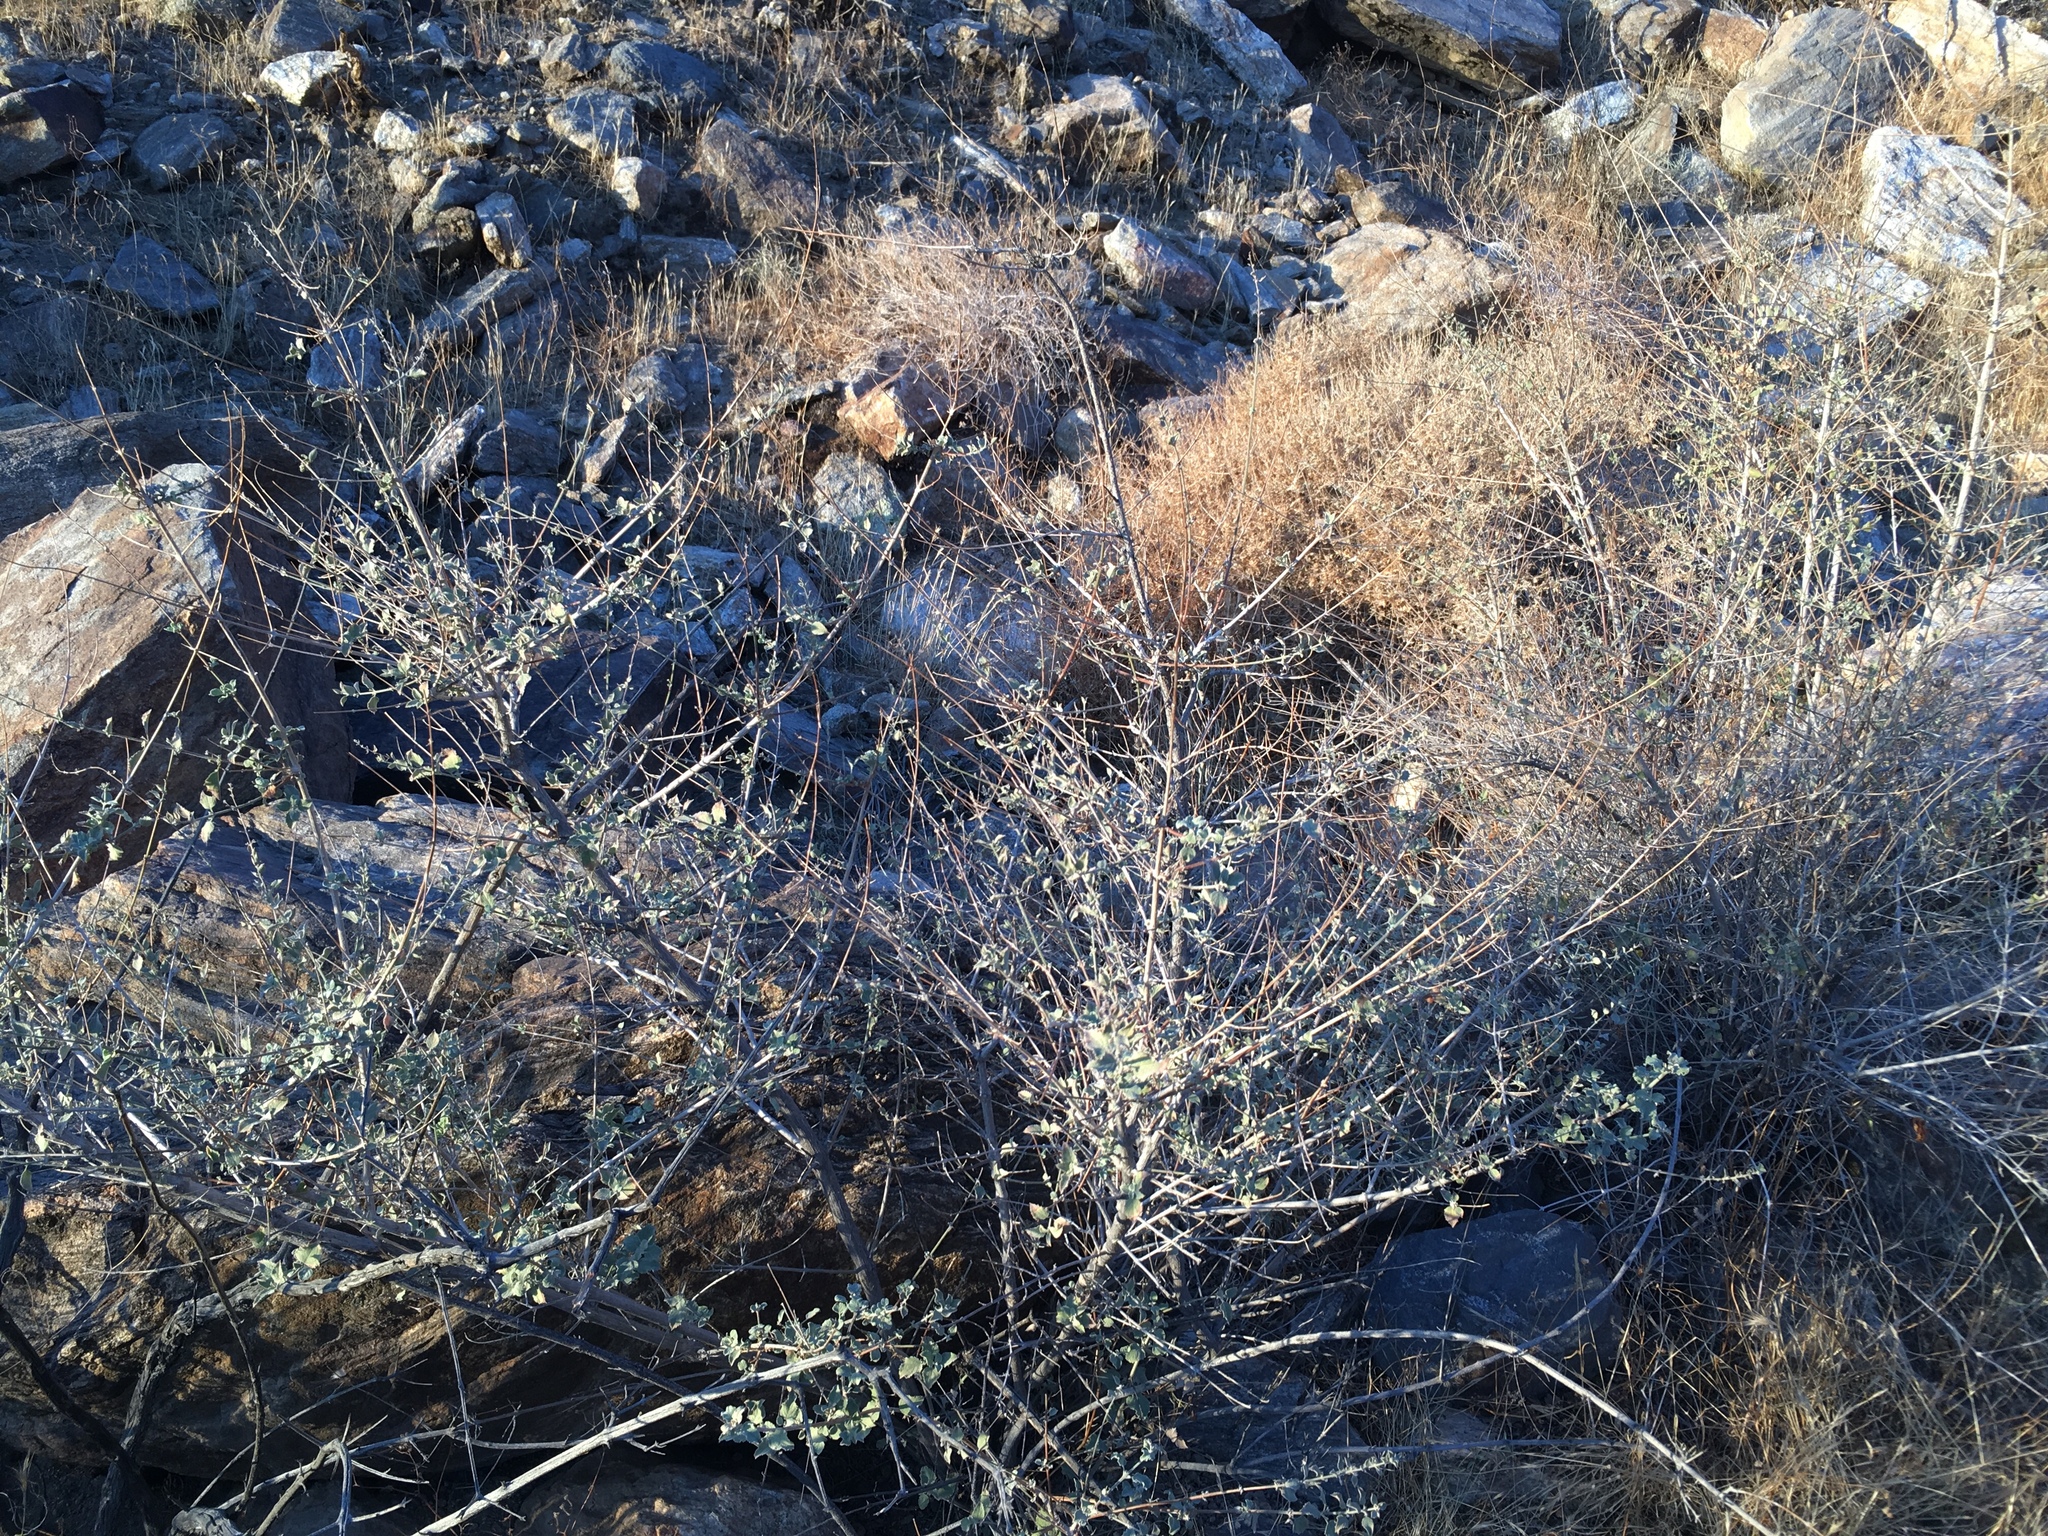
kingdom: Plantae
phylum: Tracheophyta
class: Magnoliopsida
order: Lamiales
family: Lamiaceae
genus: Condea
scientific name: Condea emoryi
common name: Chia
